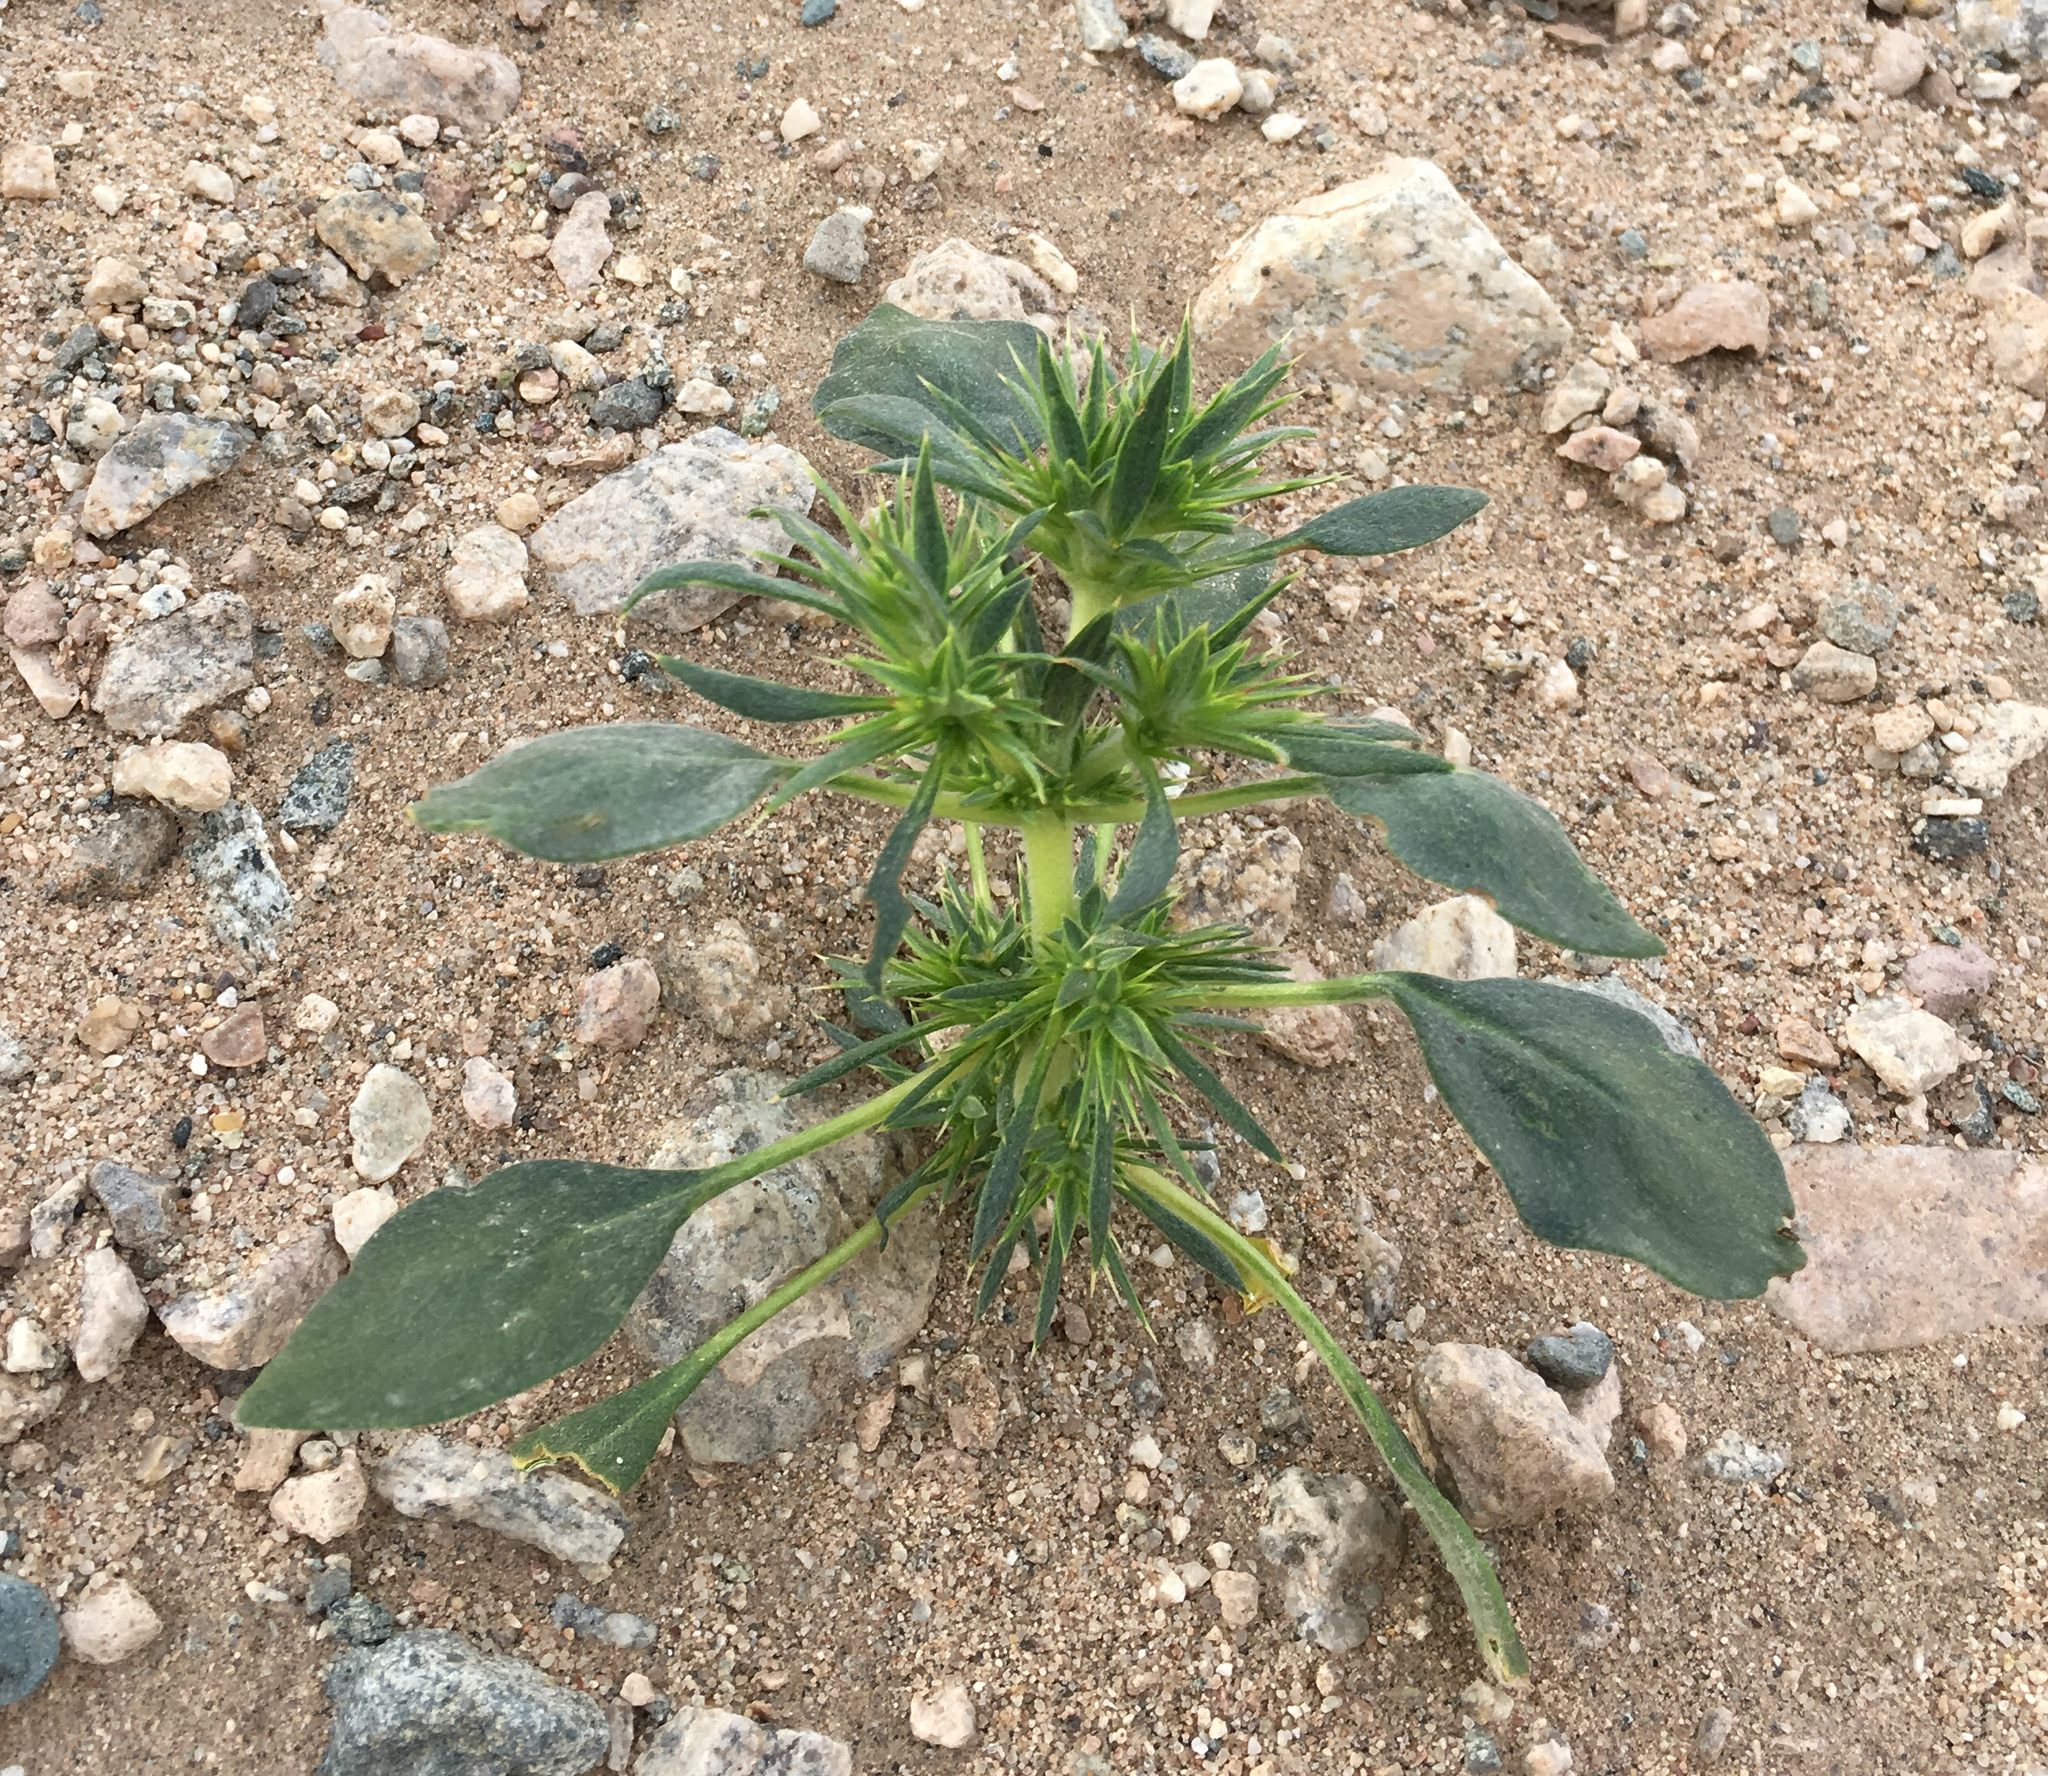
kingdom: Plantae
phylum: Tracheophyta
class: Magnoliopsida
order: Caryophyllales
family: Polygonaceae
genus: Chorizanthe
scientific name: Chorizanthe rigida
